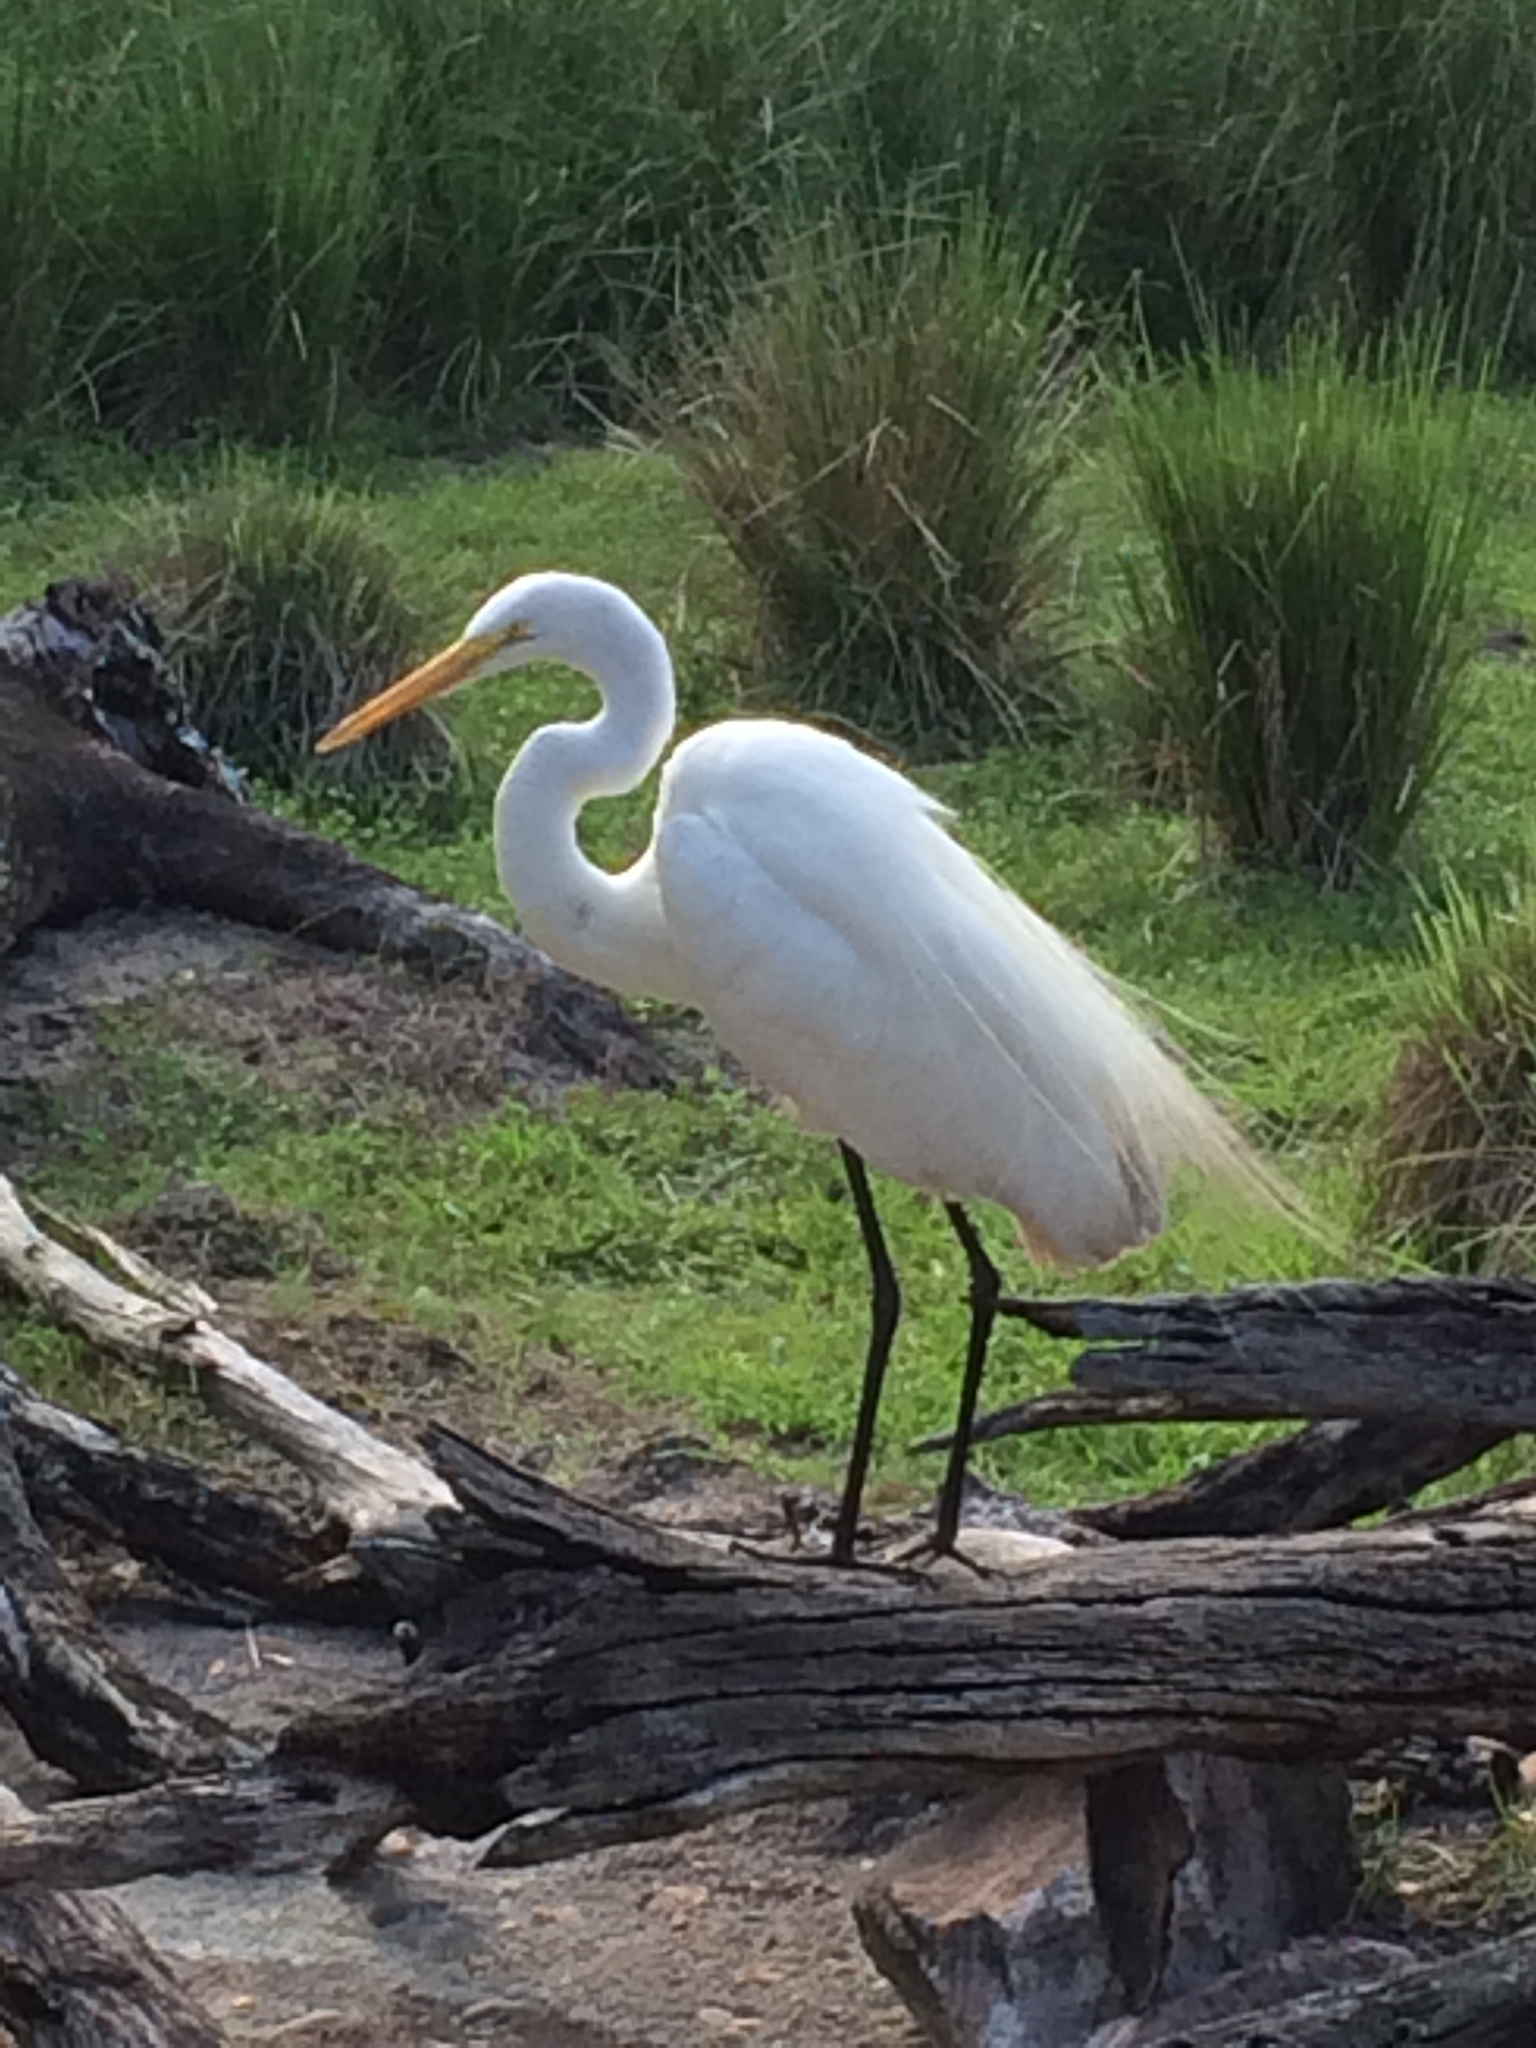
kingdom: Animalia
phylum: Chordata
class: Aves
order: Pelecaniformes
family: Ardeidae
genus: Ardea
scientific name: Ardea alba
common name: Great egret
